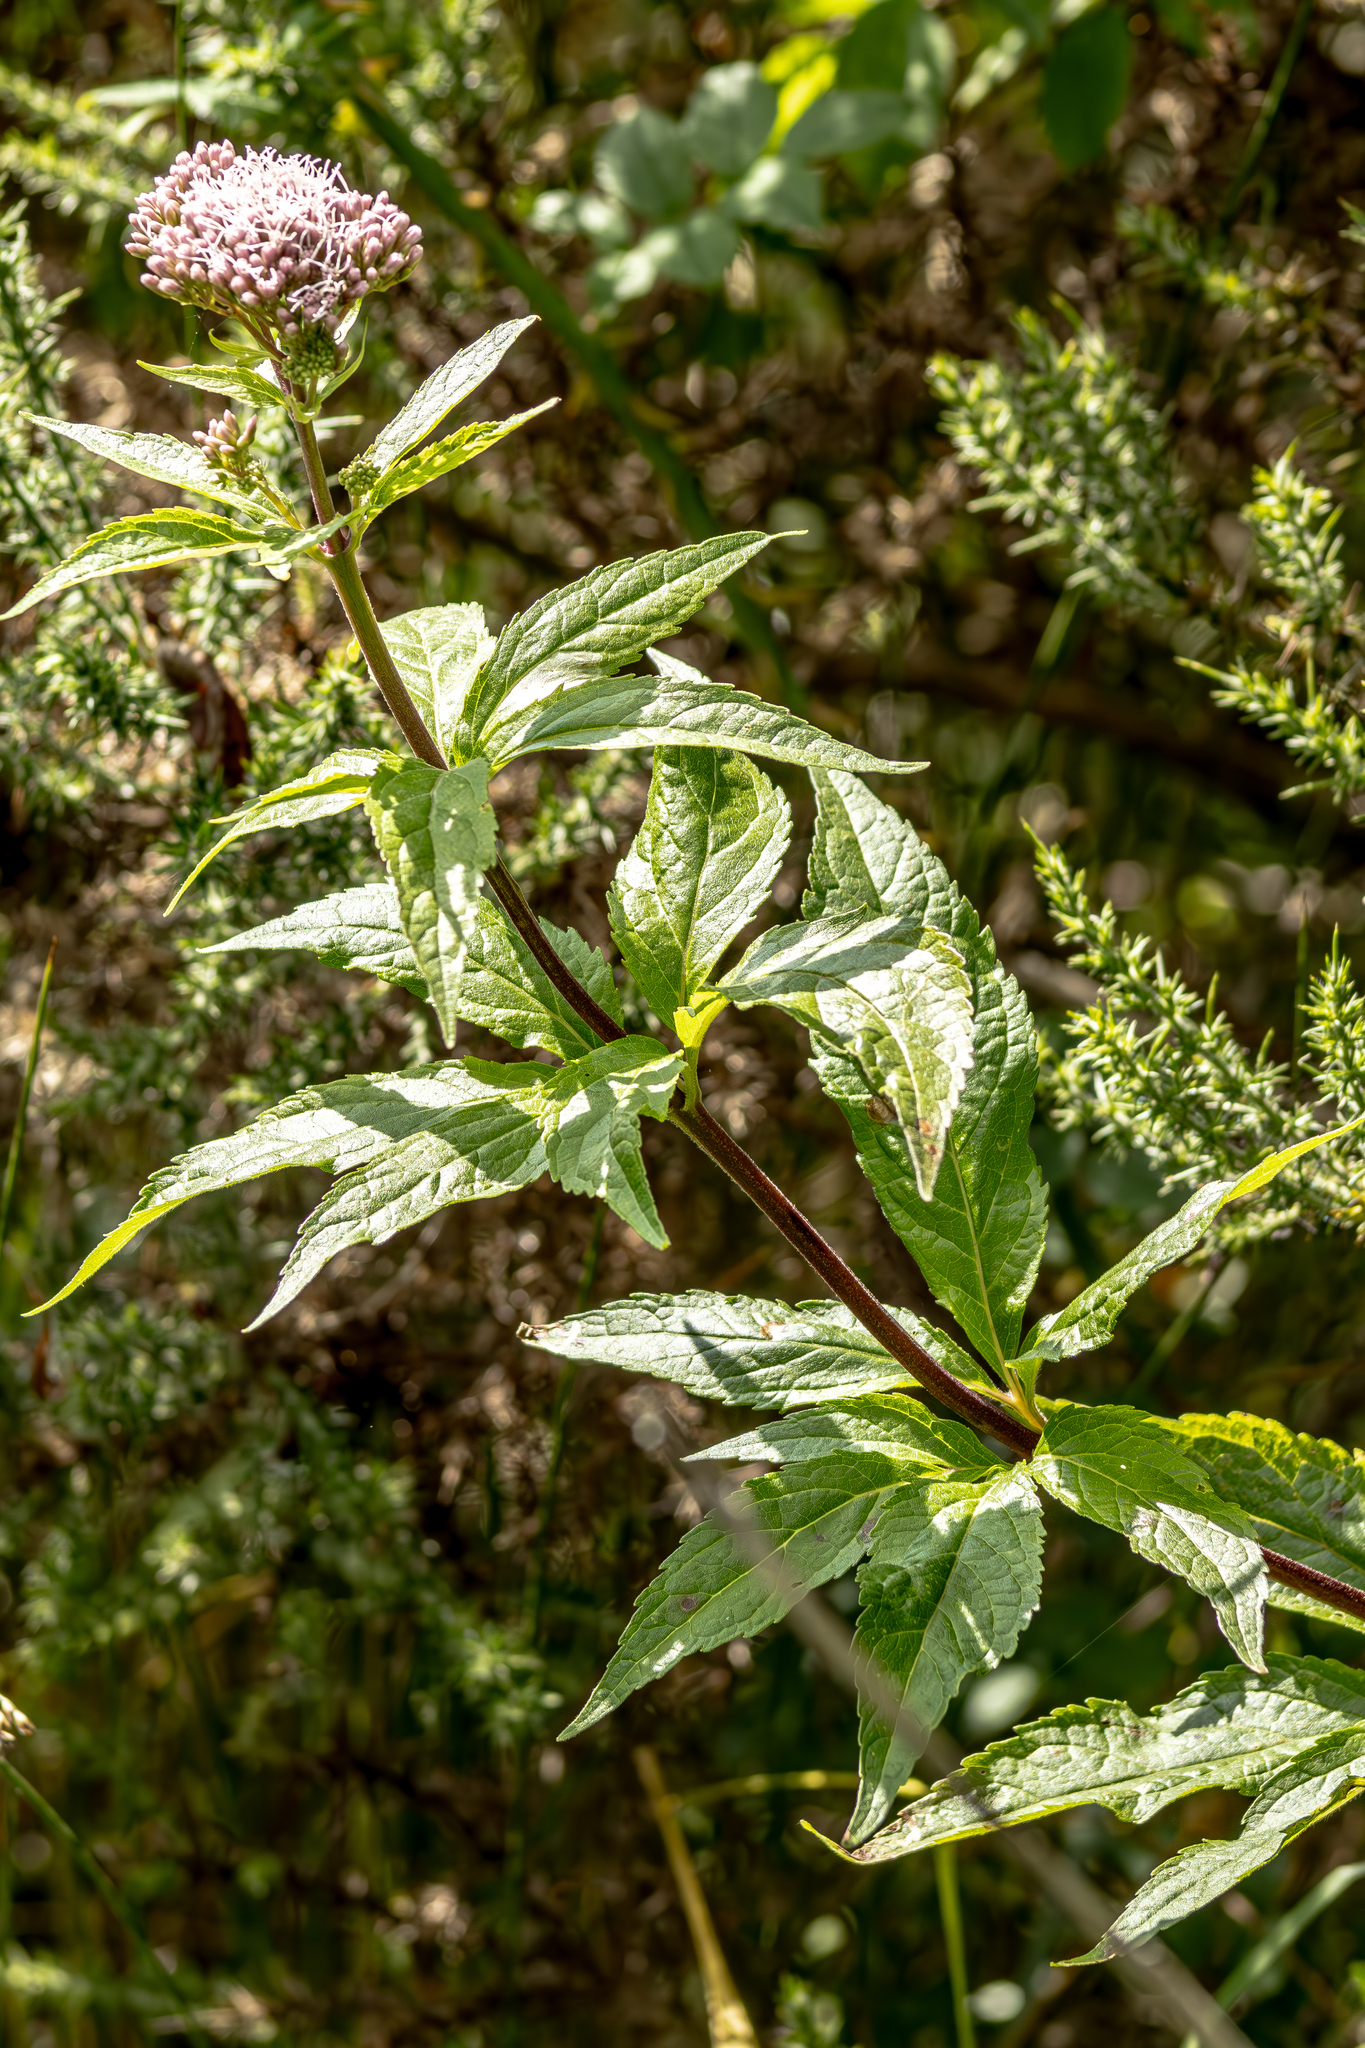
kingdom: Plantae
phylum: Tracheophyta
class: Magnoliopsida
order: Asterales
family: Asteraceae
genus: Eupatorium
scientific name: Eupatorium cannabinum
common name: Hemp-agrimony
